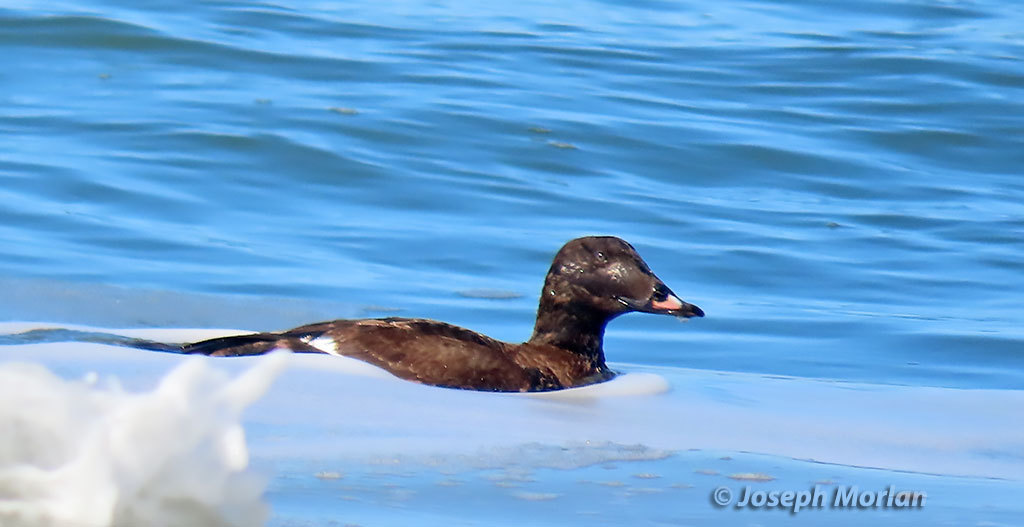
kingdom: Animalia
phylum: Chordata
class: Aves
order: Anseriformes
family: Anatidae
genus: Melanitta
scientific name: Melanitta deglandi
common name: White-winged scoter
